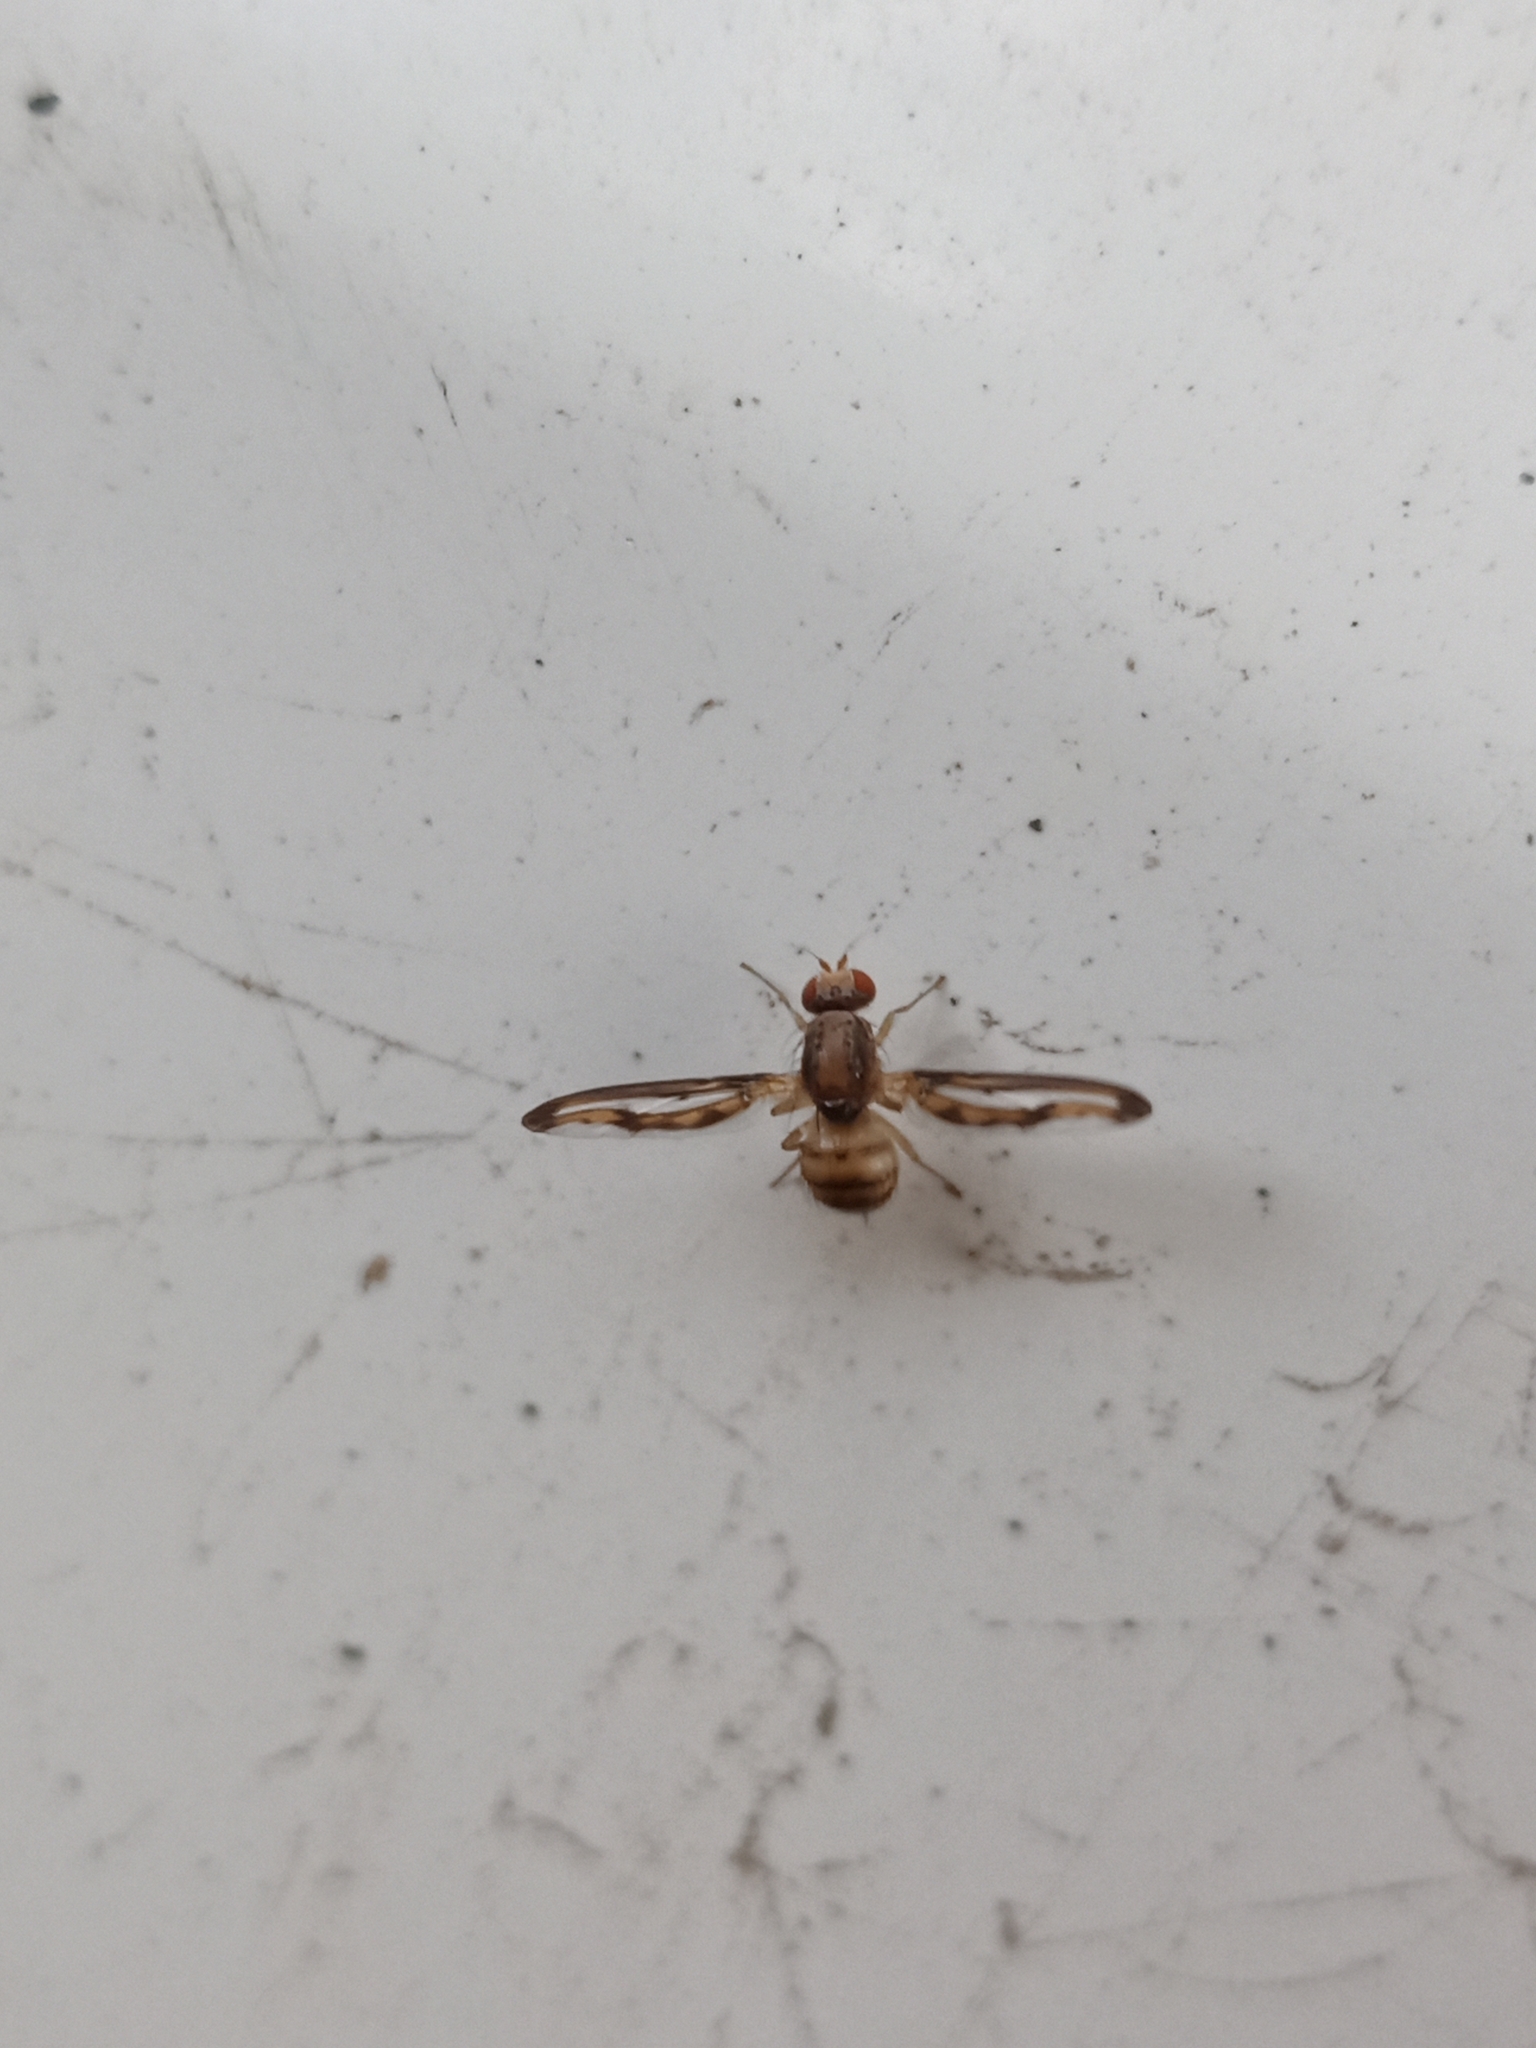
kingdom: Animalia
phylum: Arthropoda
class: Insecta
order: Diptera
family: Pallopteridae
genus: Toxonevra
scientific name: Toxonevra muliebris
